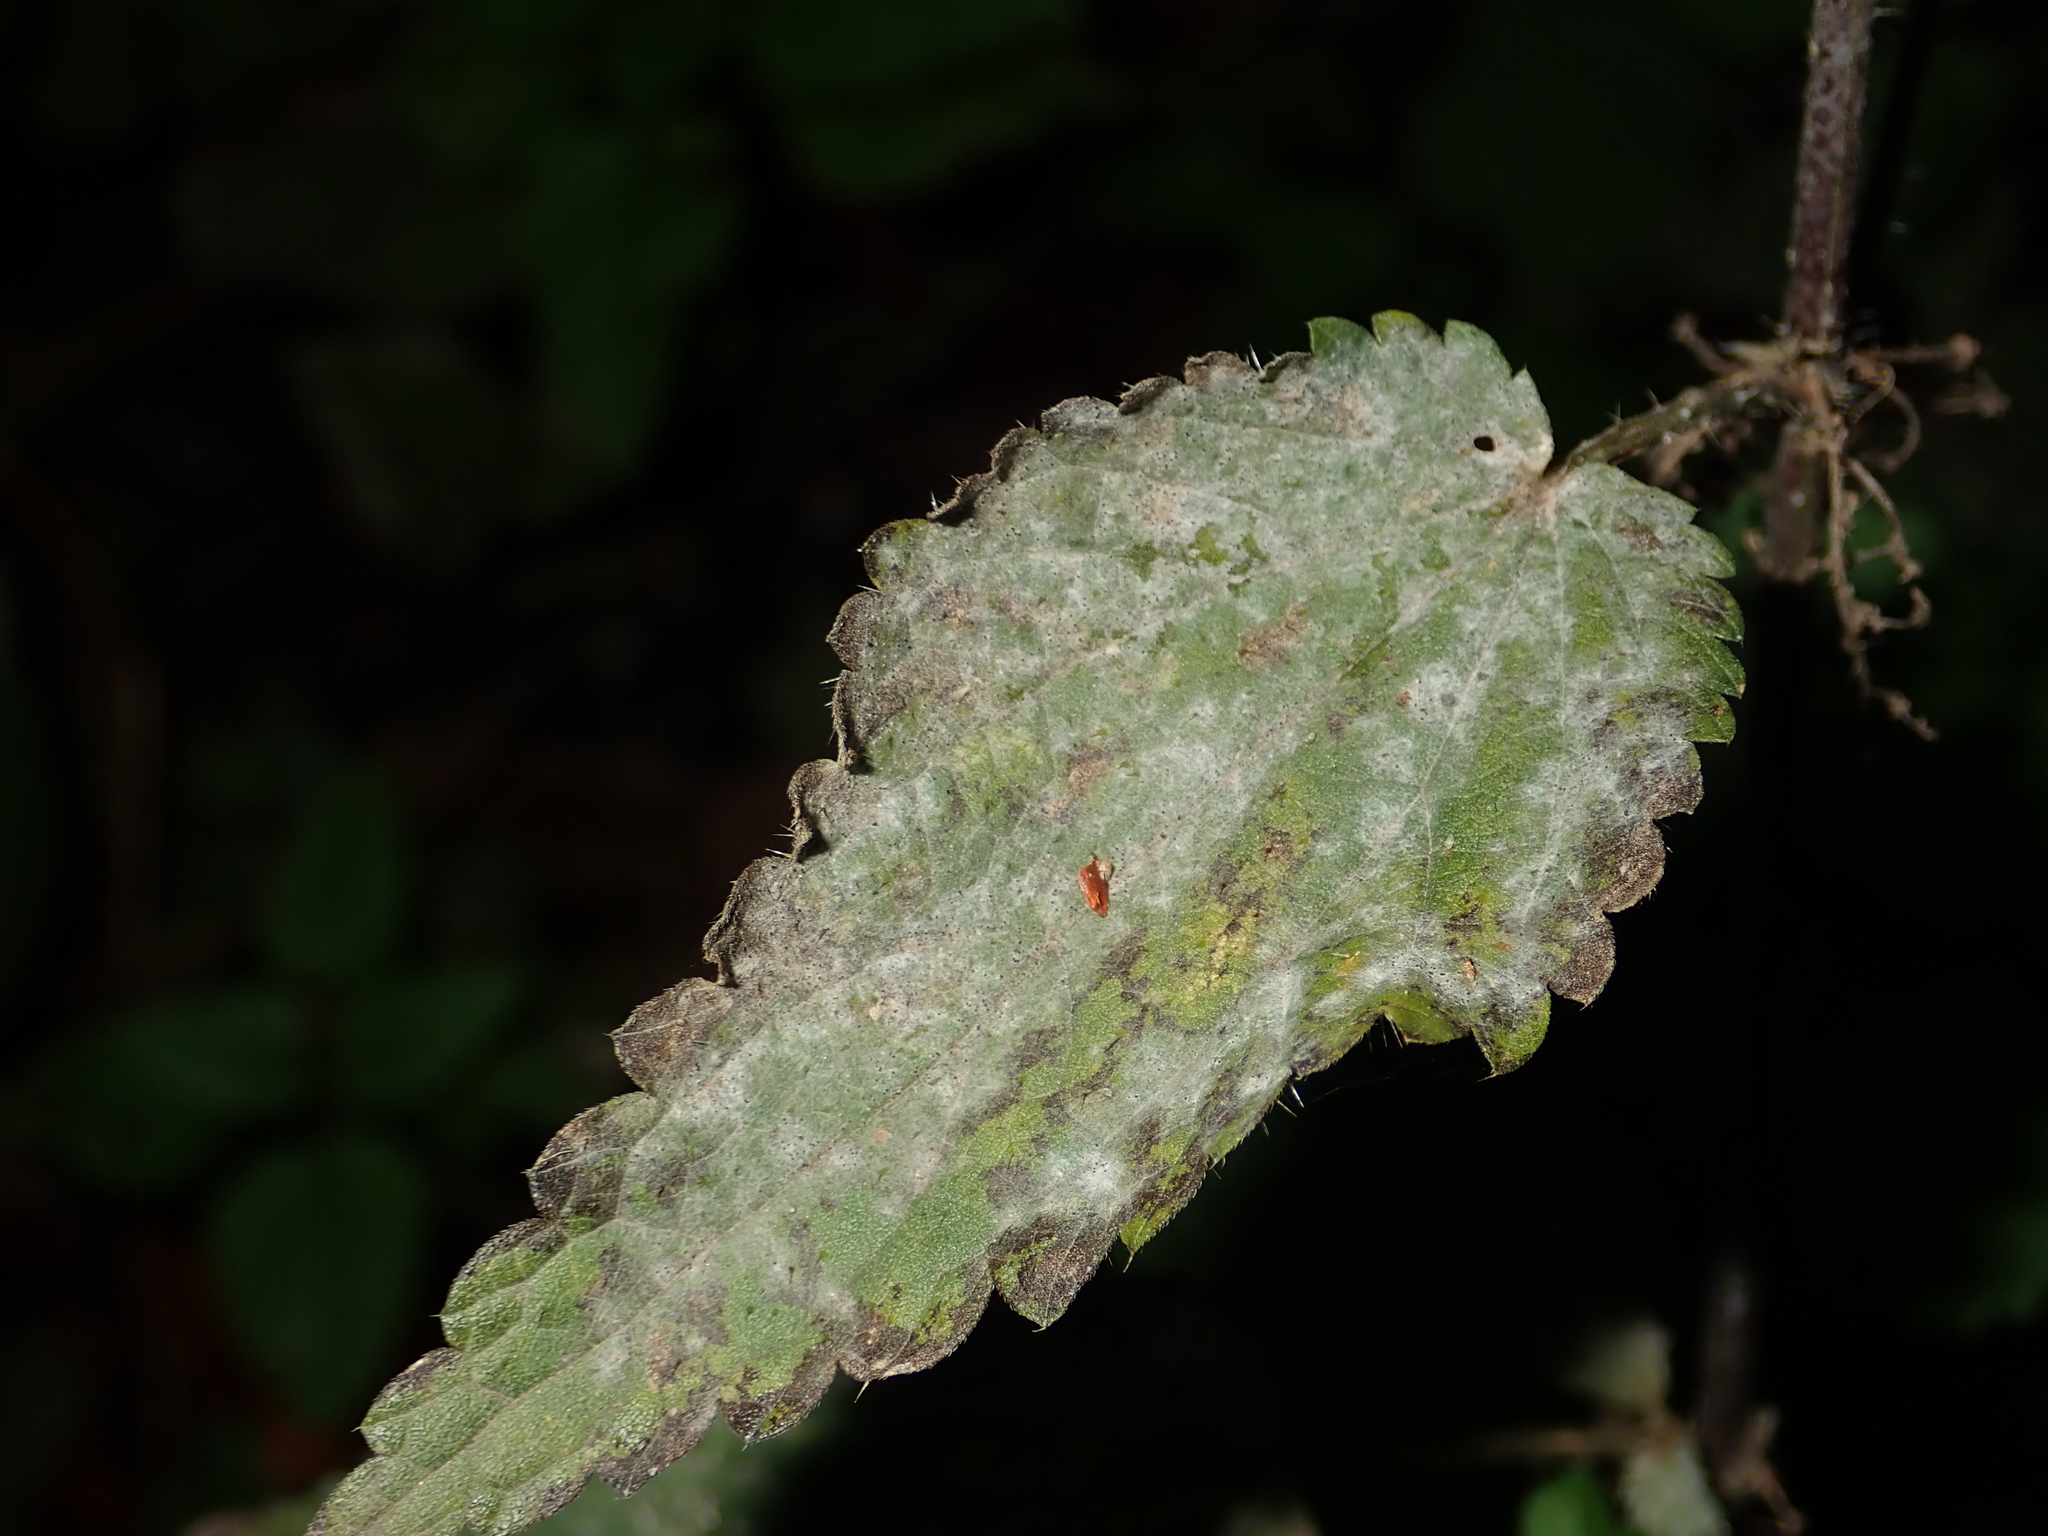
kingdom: Fungi
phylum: Ascomycota
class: Leotiomycetes
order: Helotiales
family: Erysiphaceae
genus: Erysiphe
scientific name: Erysiphe urticae
